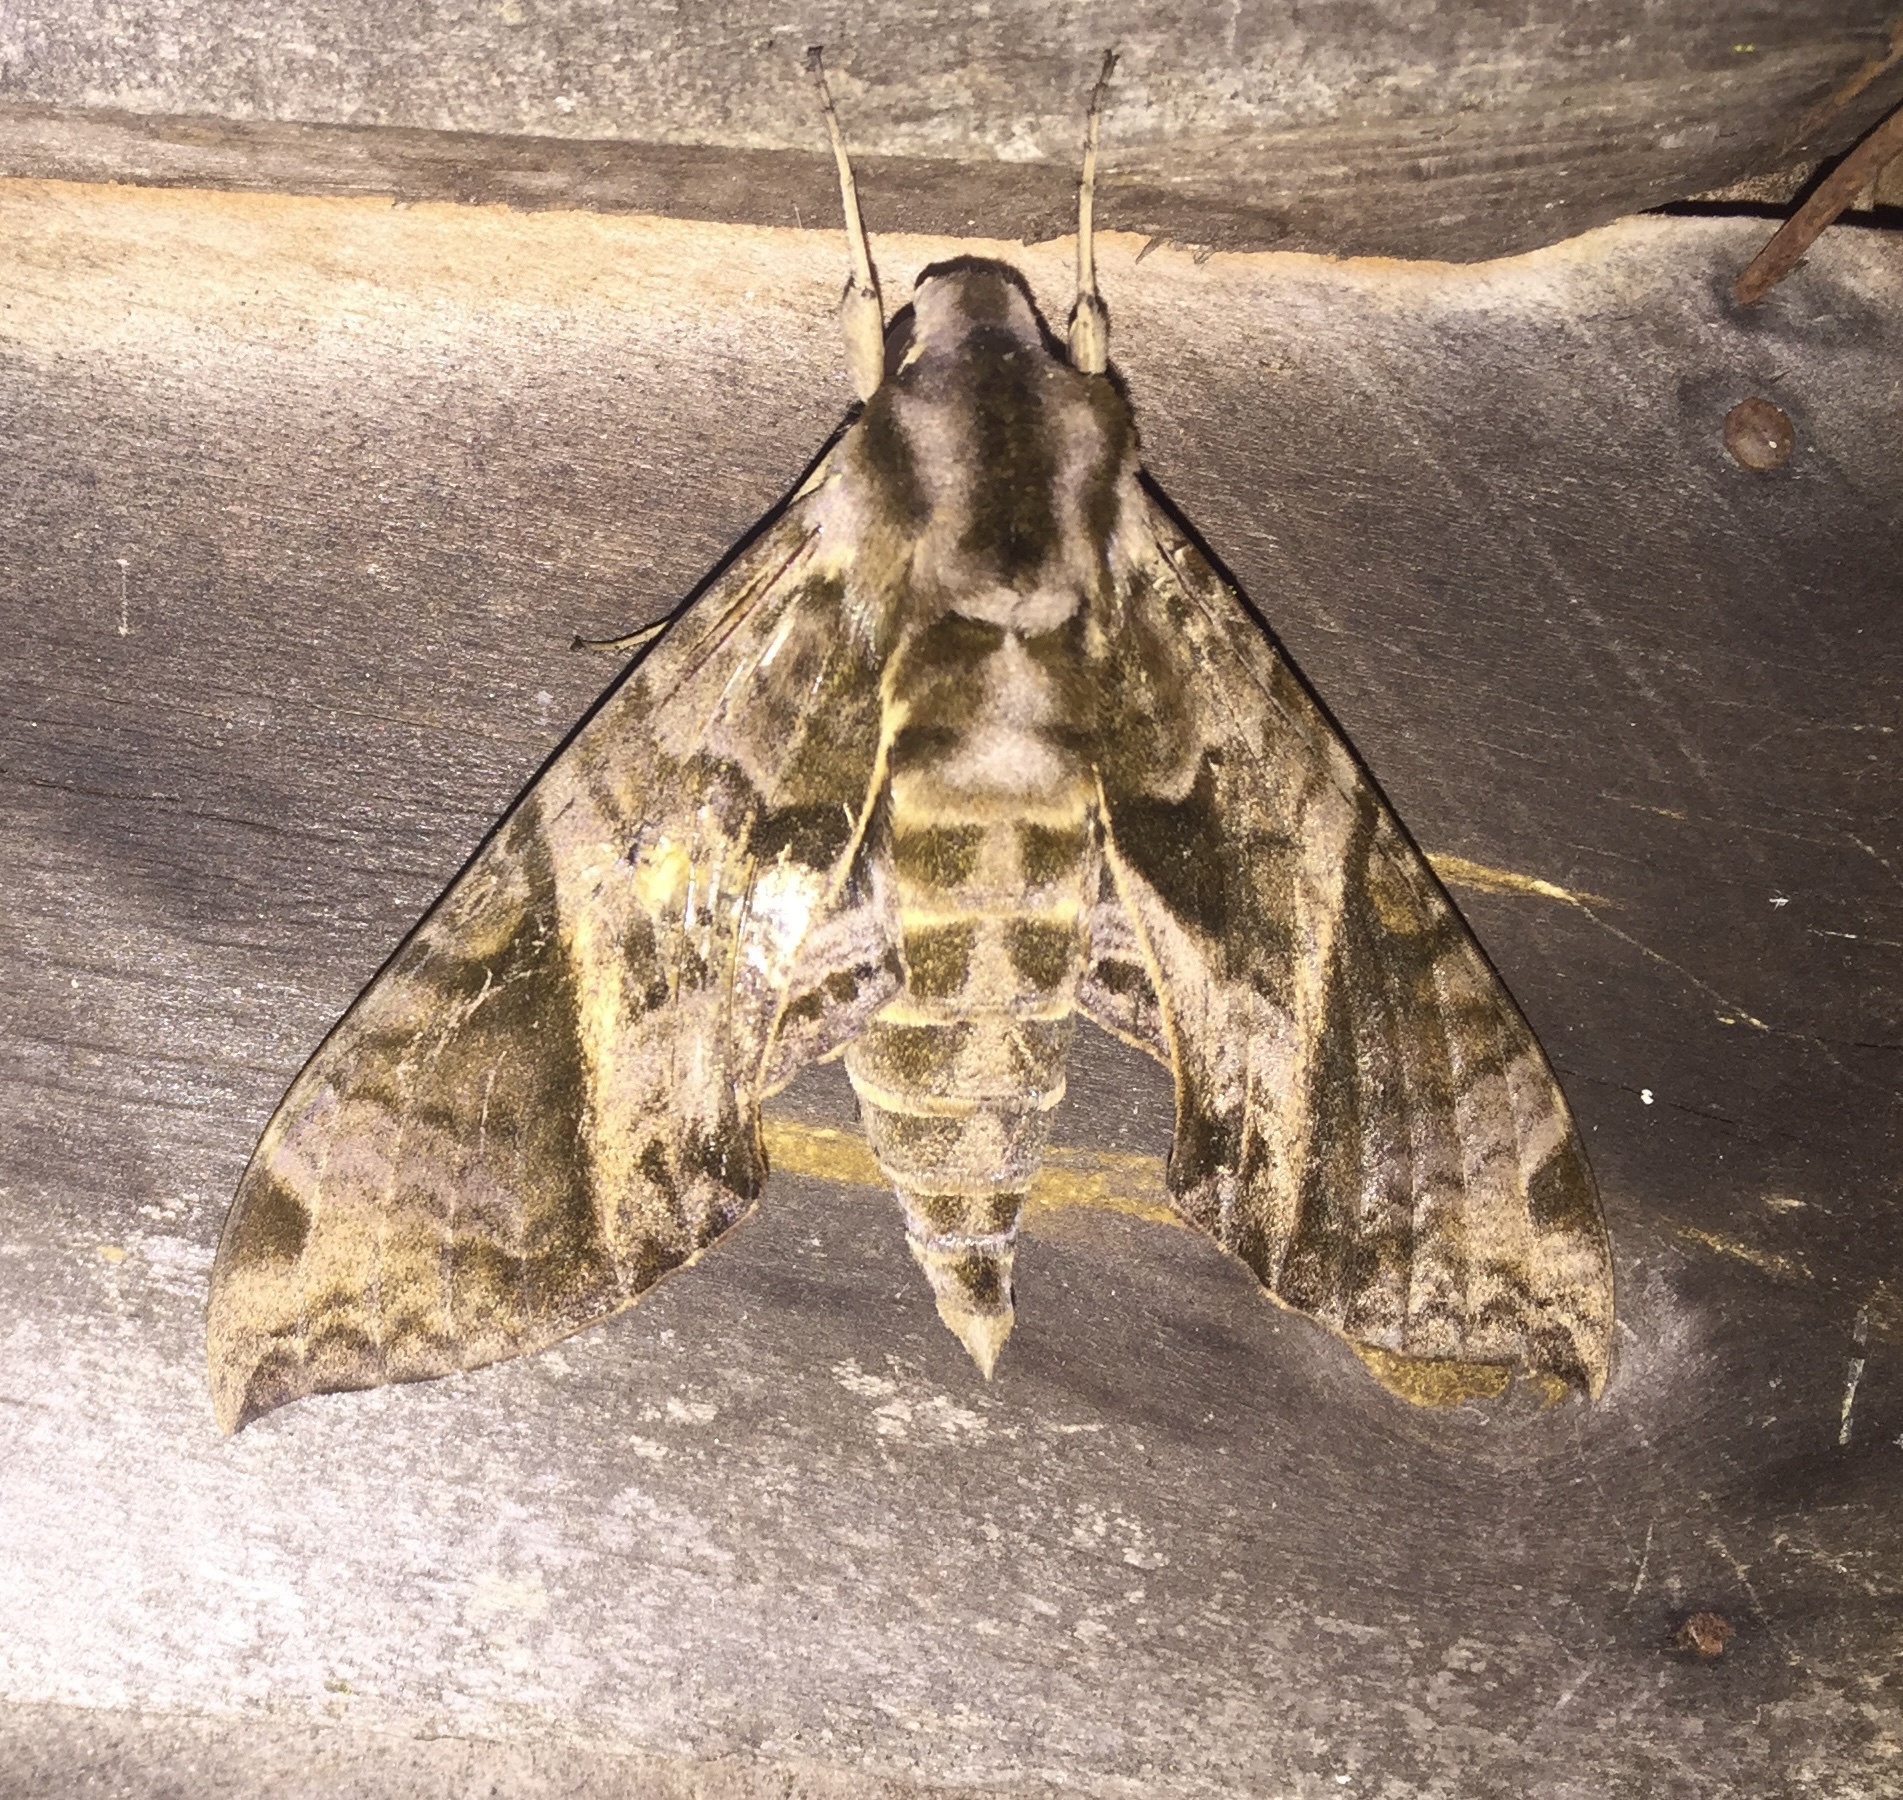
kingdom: Animalia
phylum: Arthropoda
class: Insecta
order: Lepidoptera
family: Sphingidae
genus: Eumorpha
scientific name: Eumorpha anchemolus
